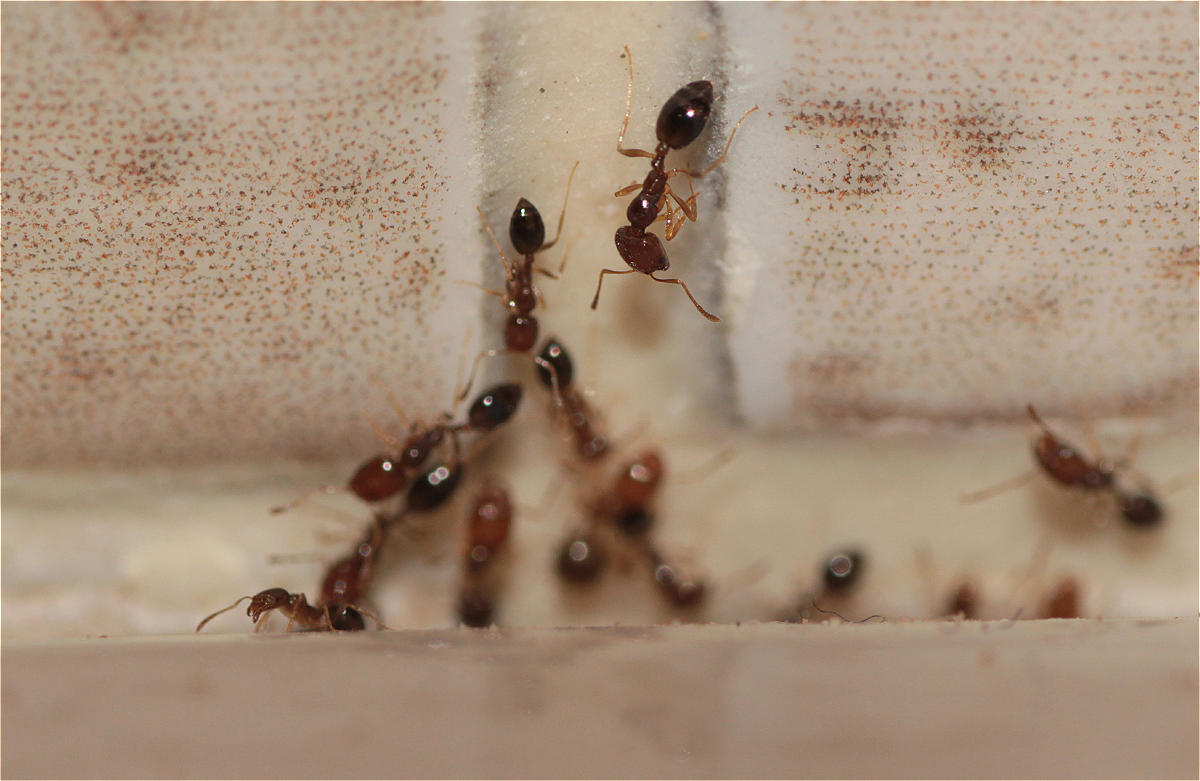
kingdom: Animalia
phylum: Arthropoda
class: Insecta
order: Hymenoptera
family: Formicidae
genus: Monomorium
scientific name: Monomorium destructor
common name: Destructive trailing ant
